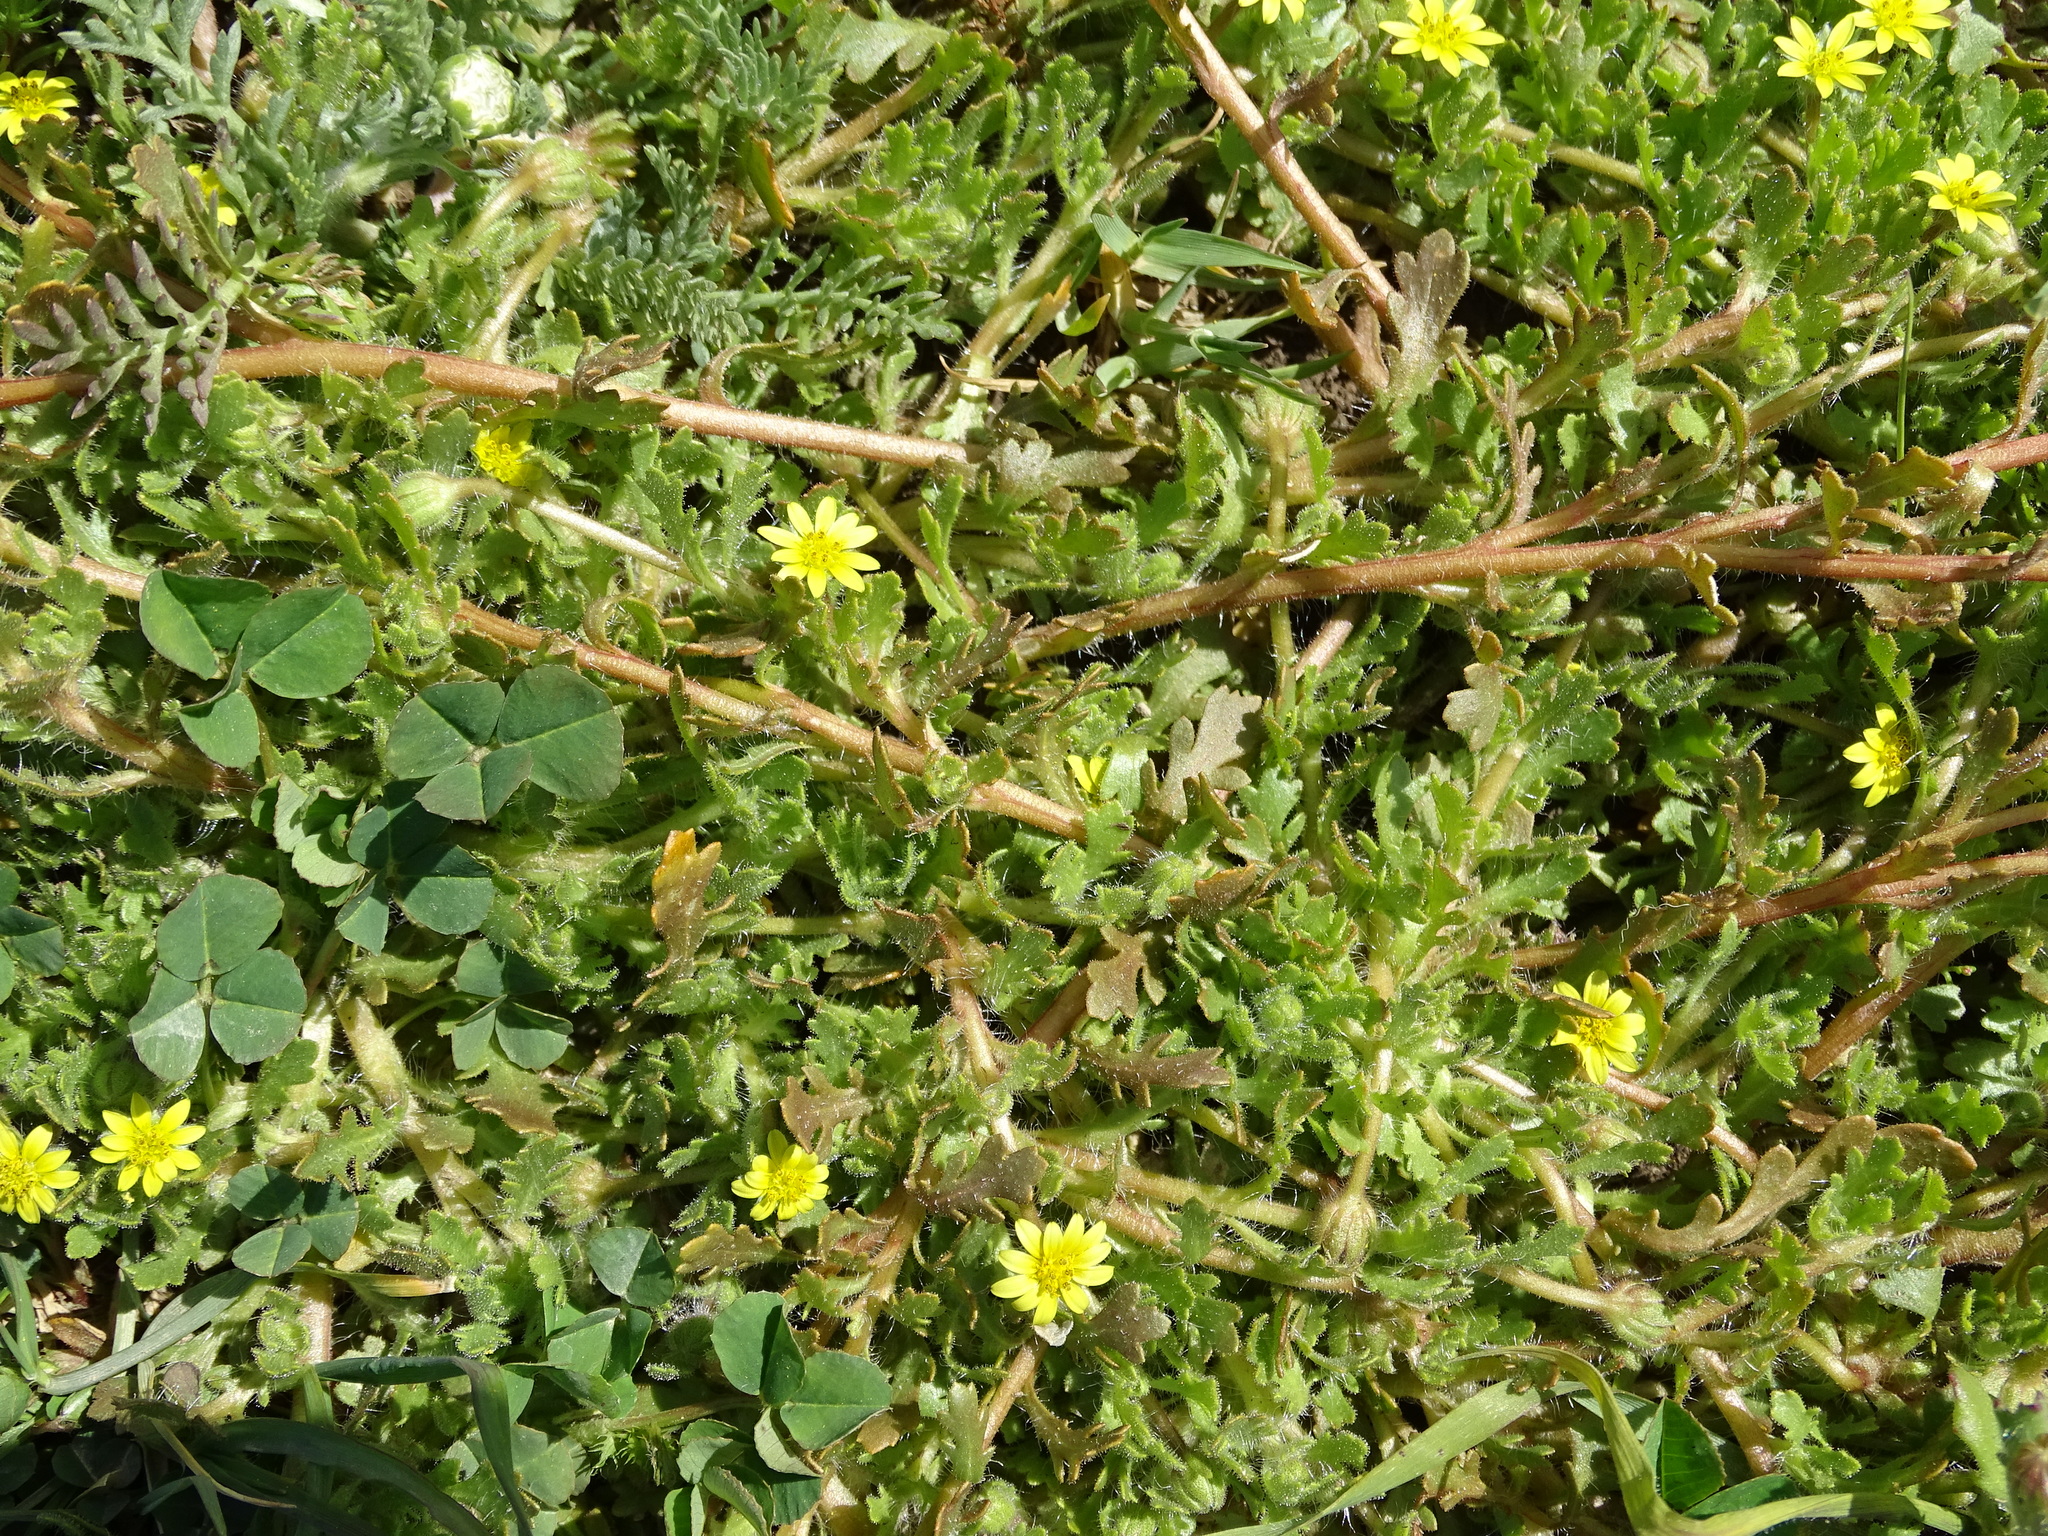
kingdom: Plantae
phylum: Tracheophyta
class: Magnoliopsida
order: Asterales
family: Asteraceae
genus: Osteospermum
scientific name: Osteospermum acanthospermum
